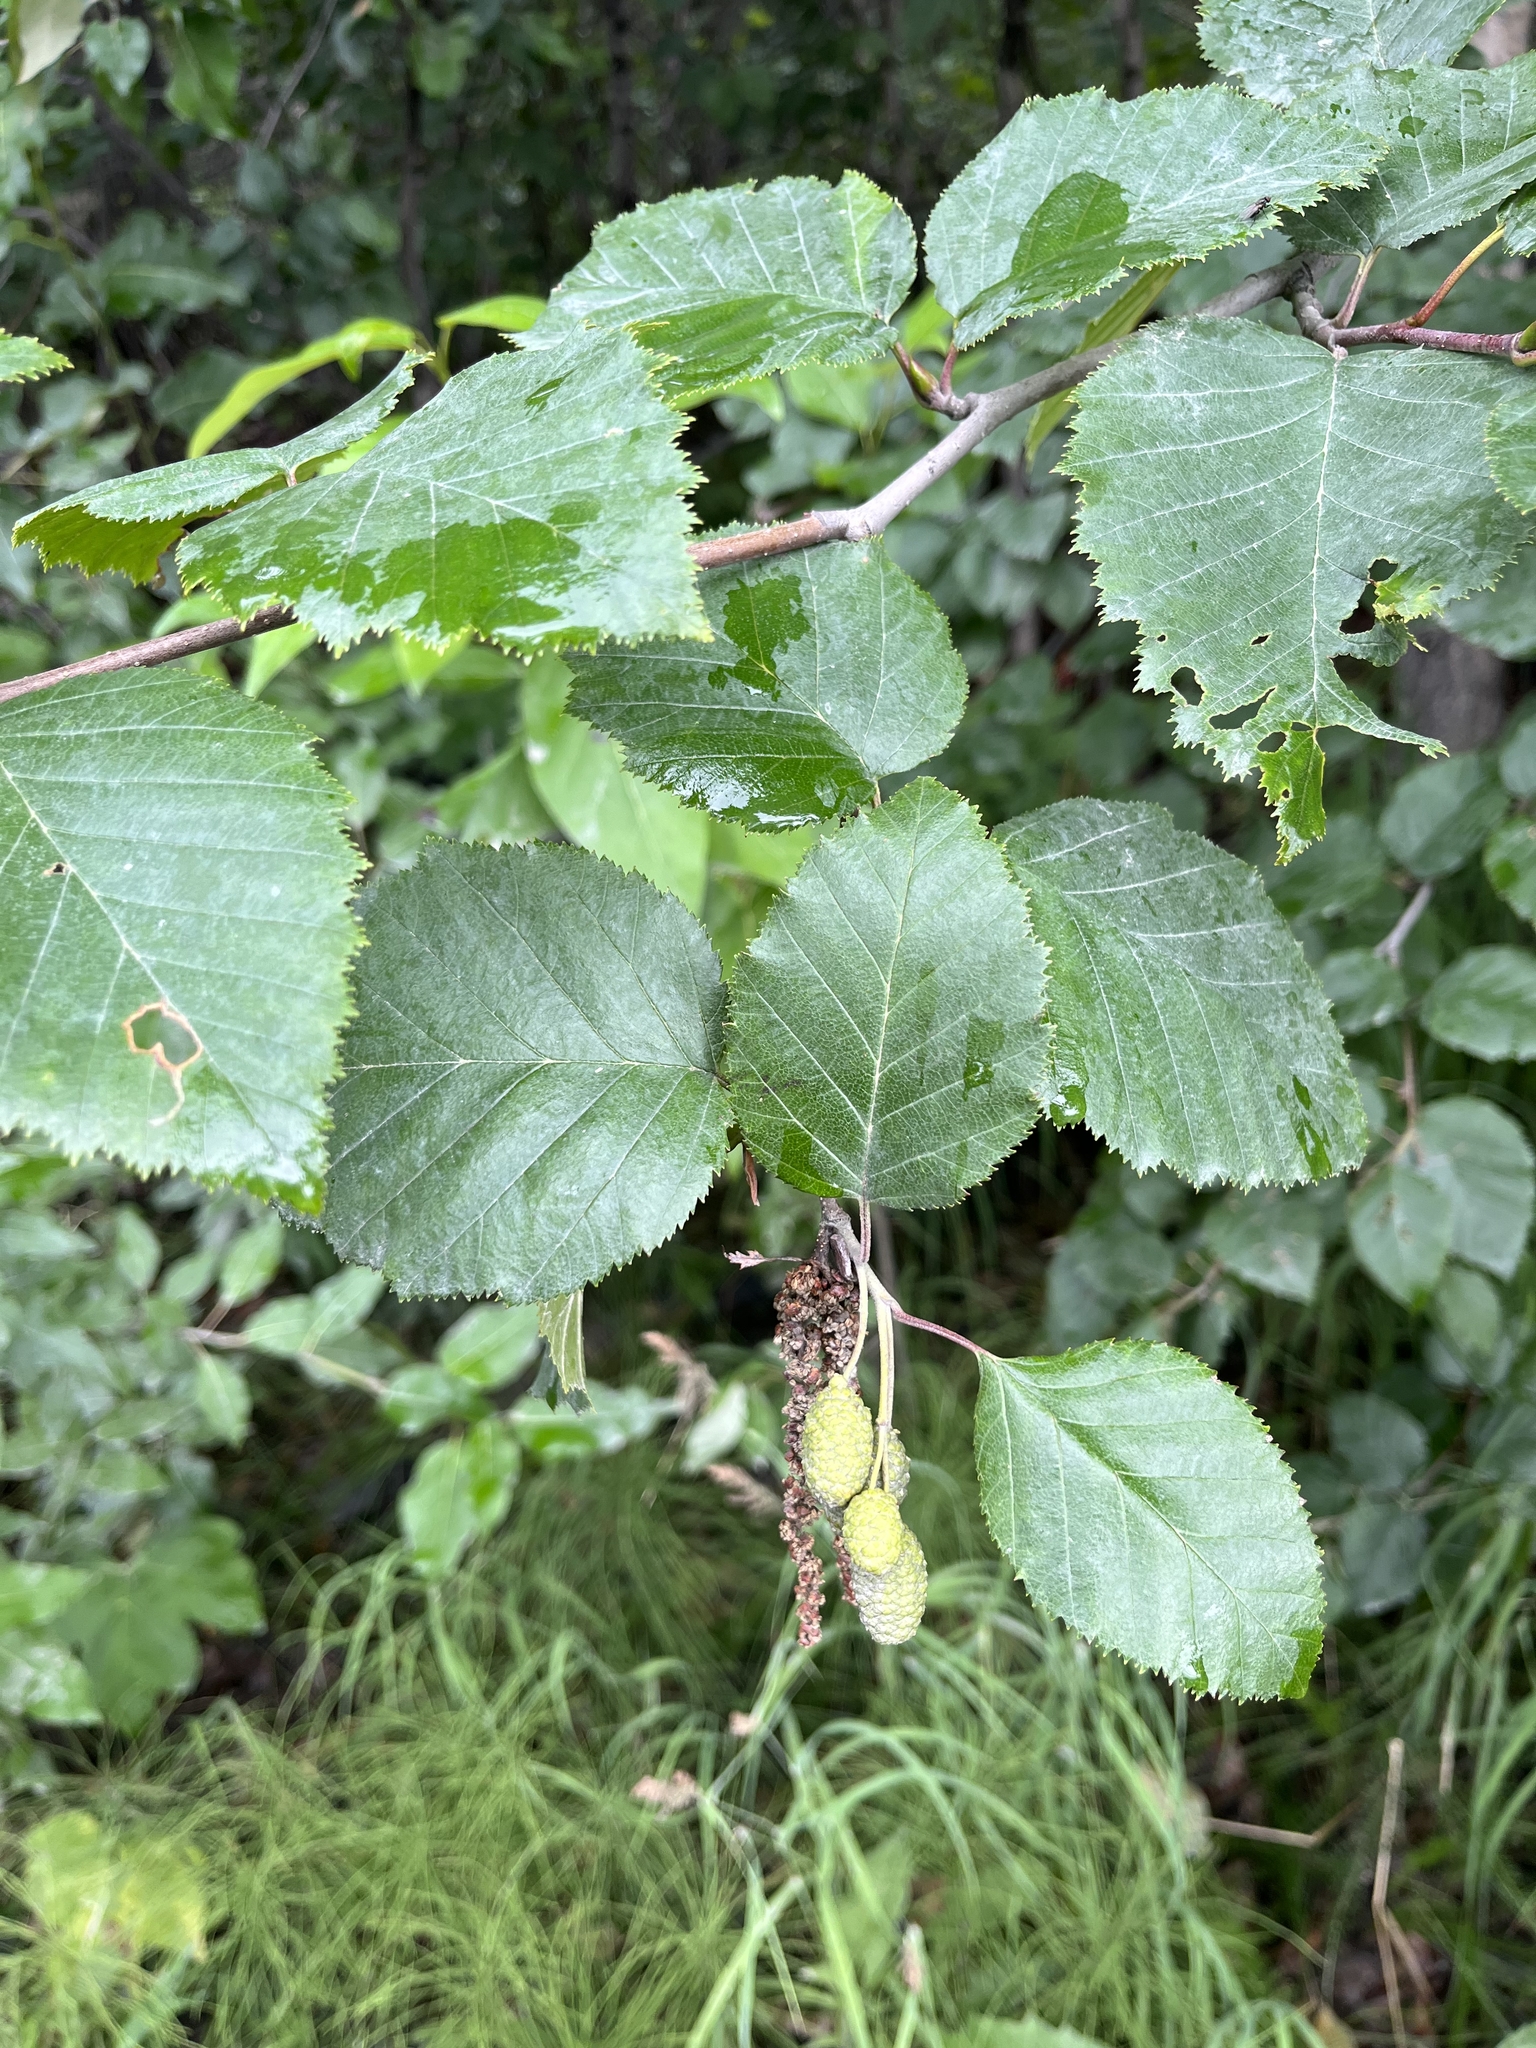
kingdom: Plantae
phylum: Tracheophyta
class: Magnoliopsida
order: Fagales
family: Betulaceae
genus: Alnus
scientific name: Alnus alnobetula
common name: Green alder
